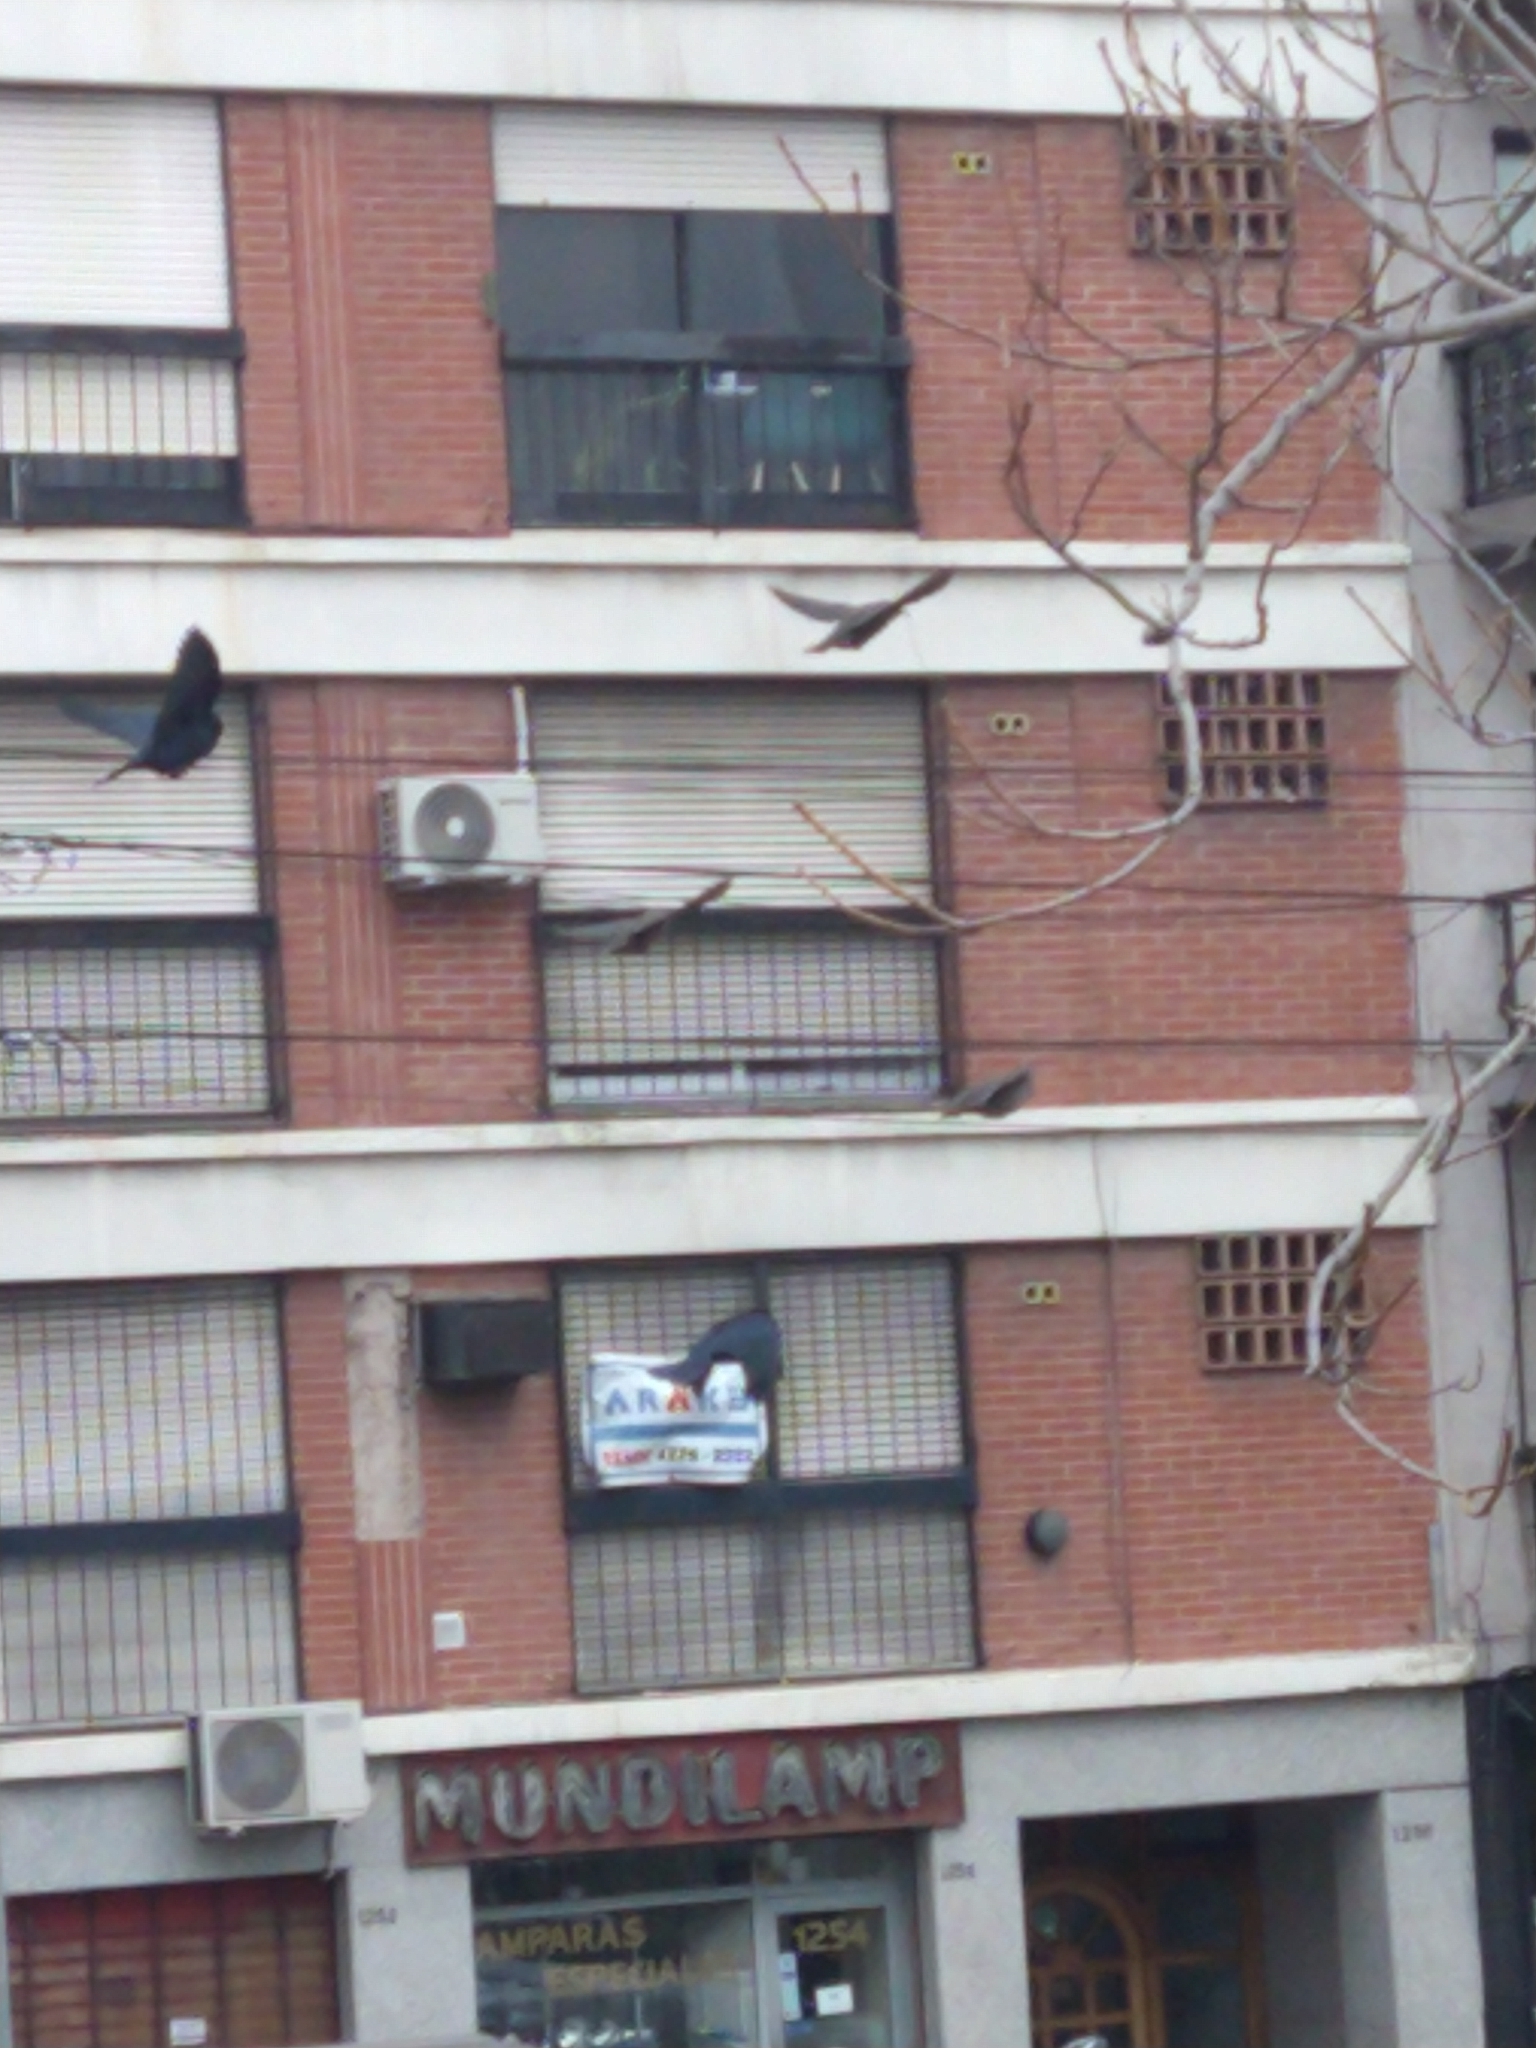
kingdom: Animalia
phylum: Chordata
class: Aves
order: Passeriformes
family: Icteridae
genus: Molothrus
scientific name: Molothrus bonariensis
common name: Shiny cowbird
